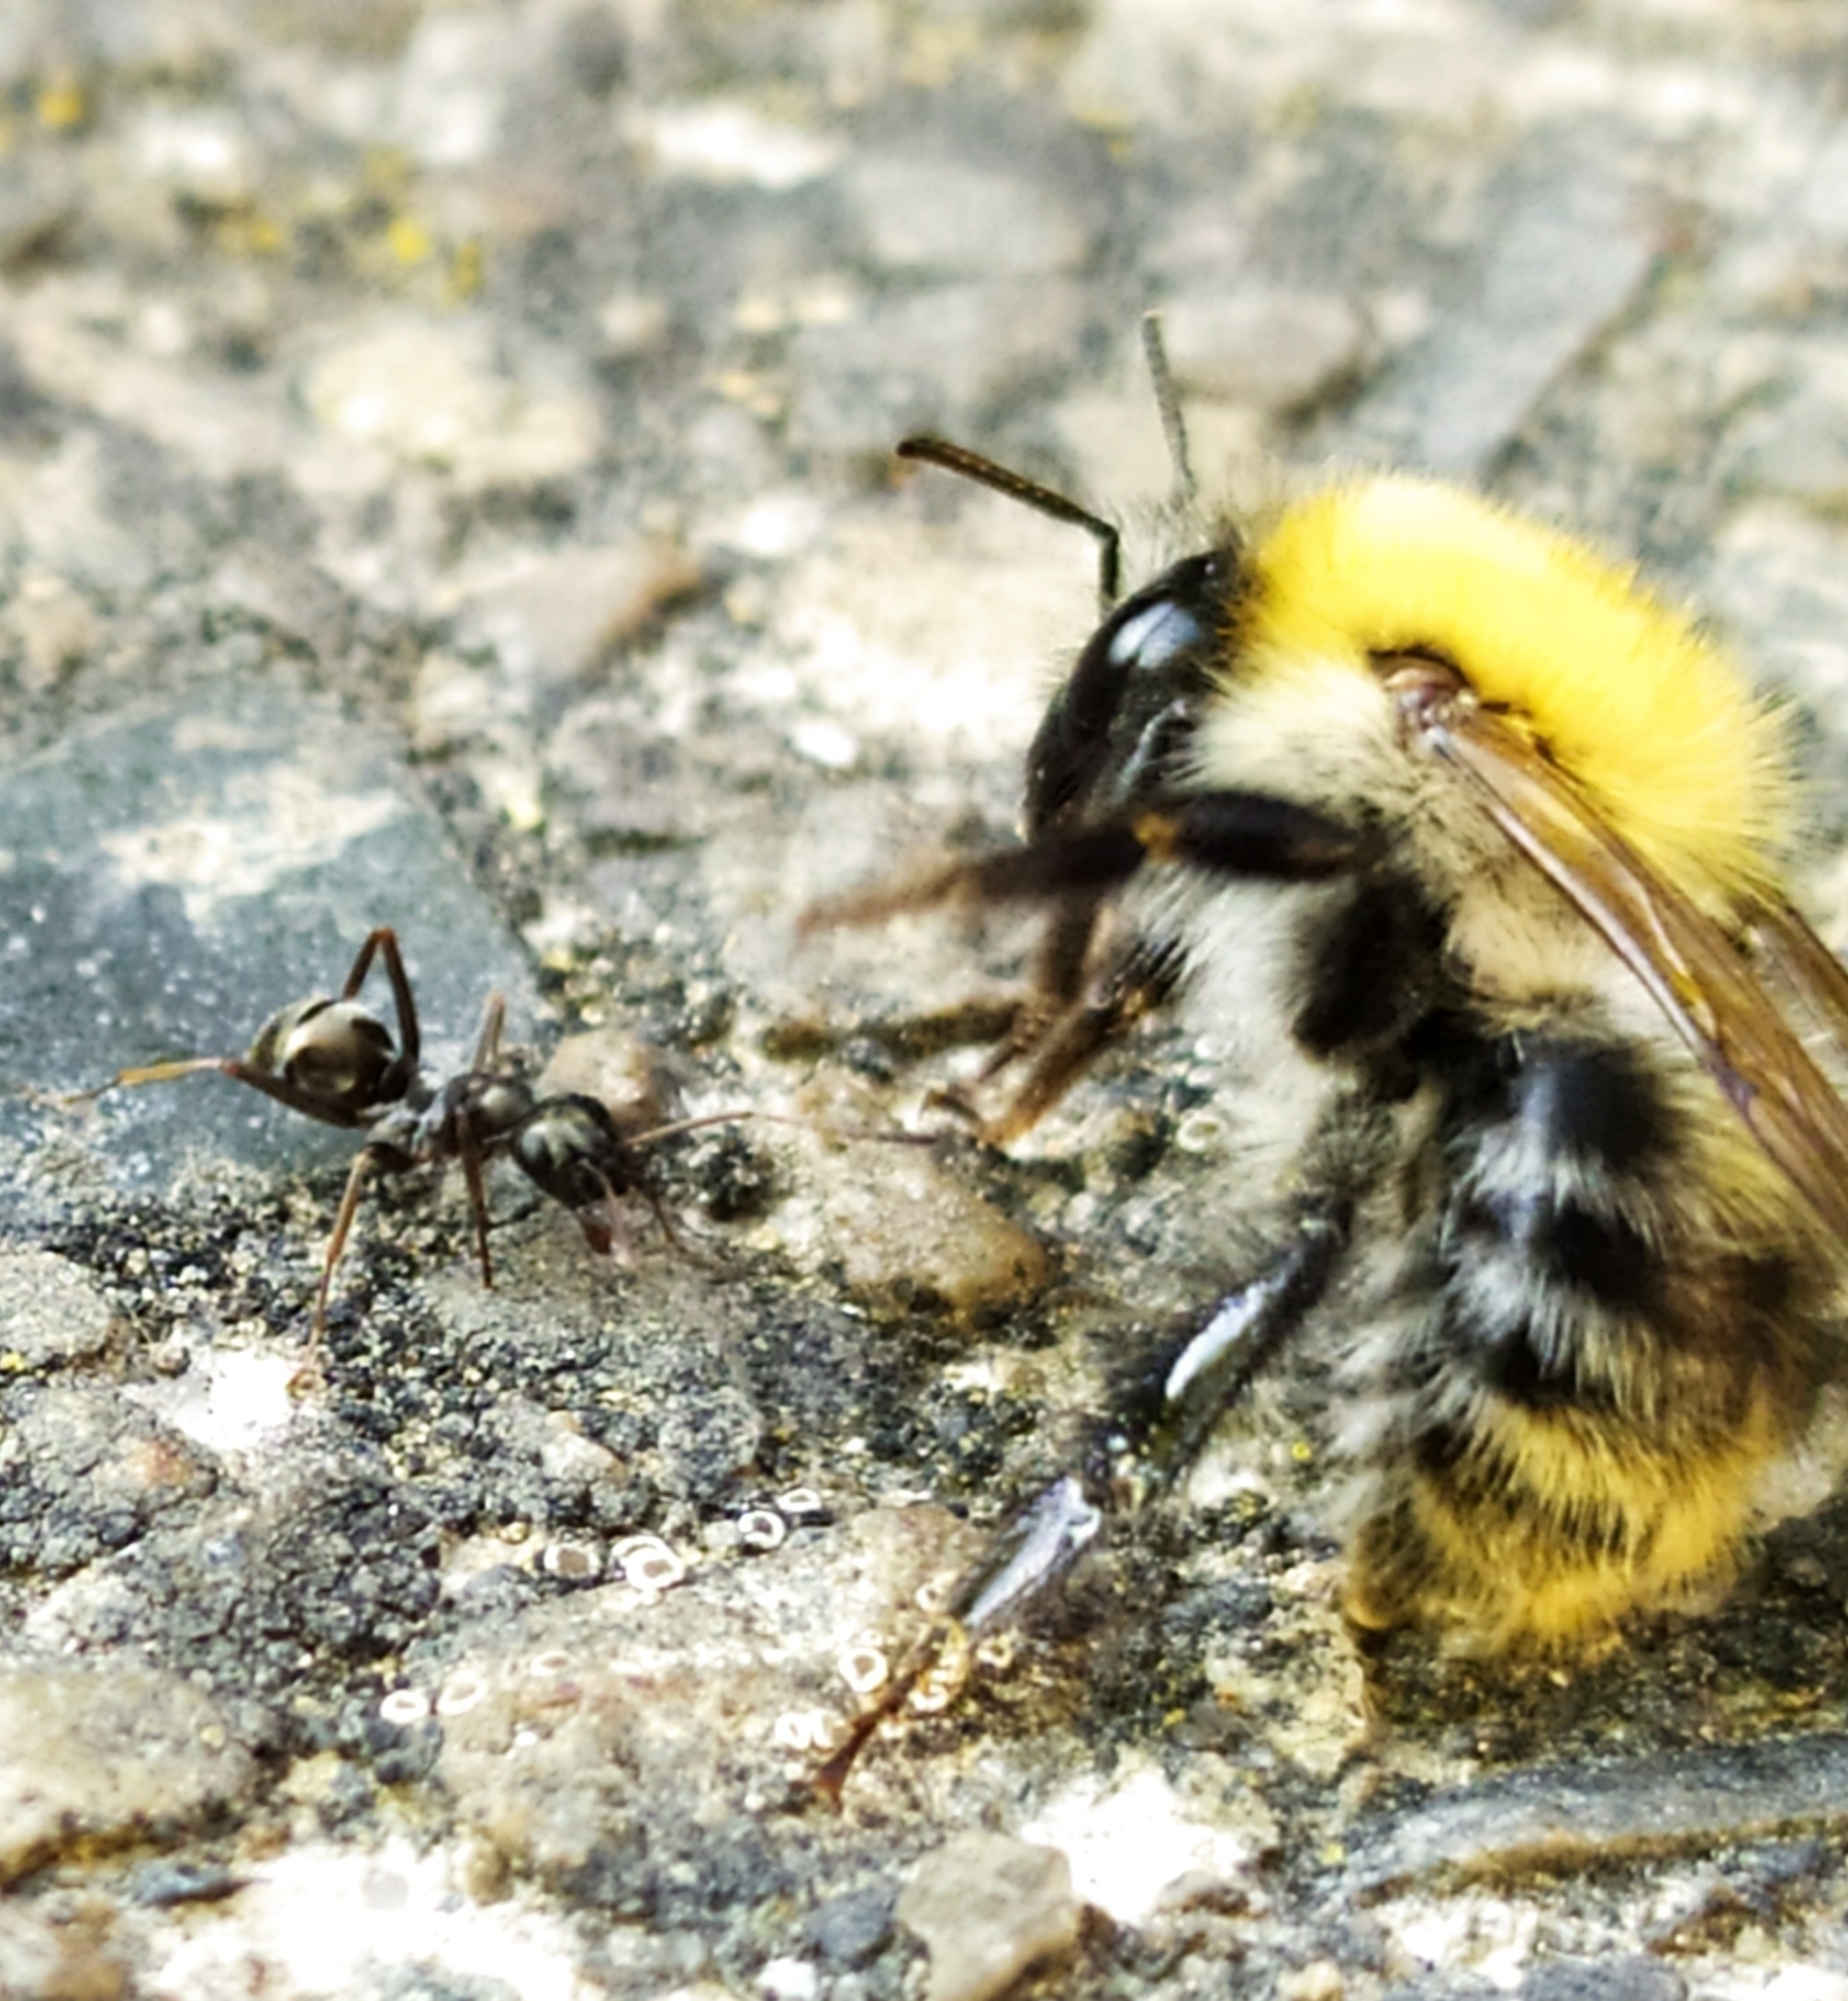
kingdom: Animalia
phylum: Arthropoda
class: Insecta
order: Hymenoptera
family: Apidae
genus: Bombus
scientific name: Bombus pascuorum
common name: Common carder bee
